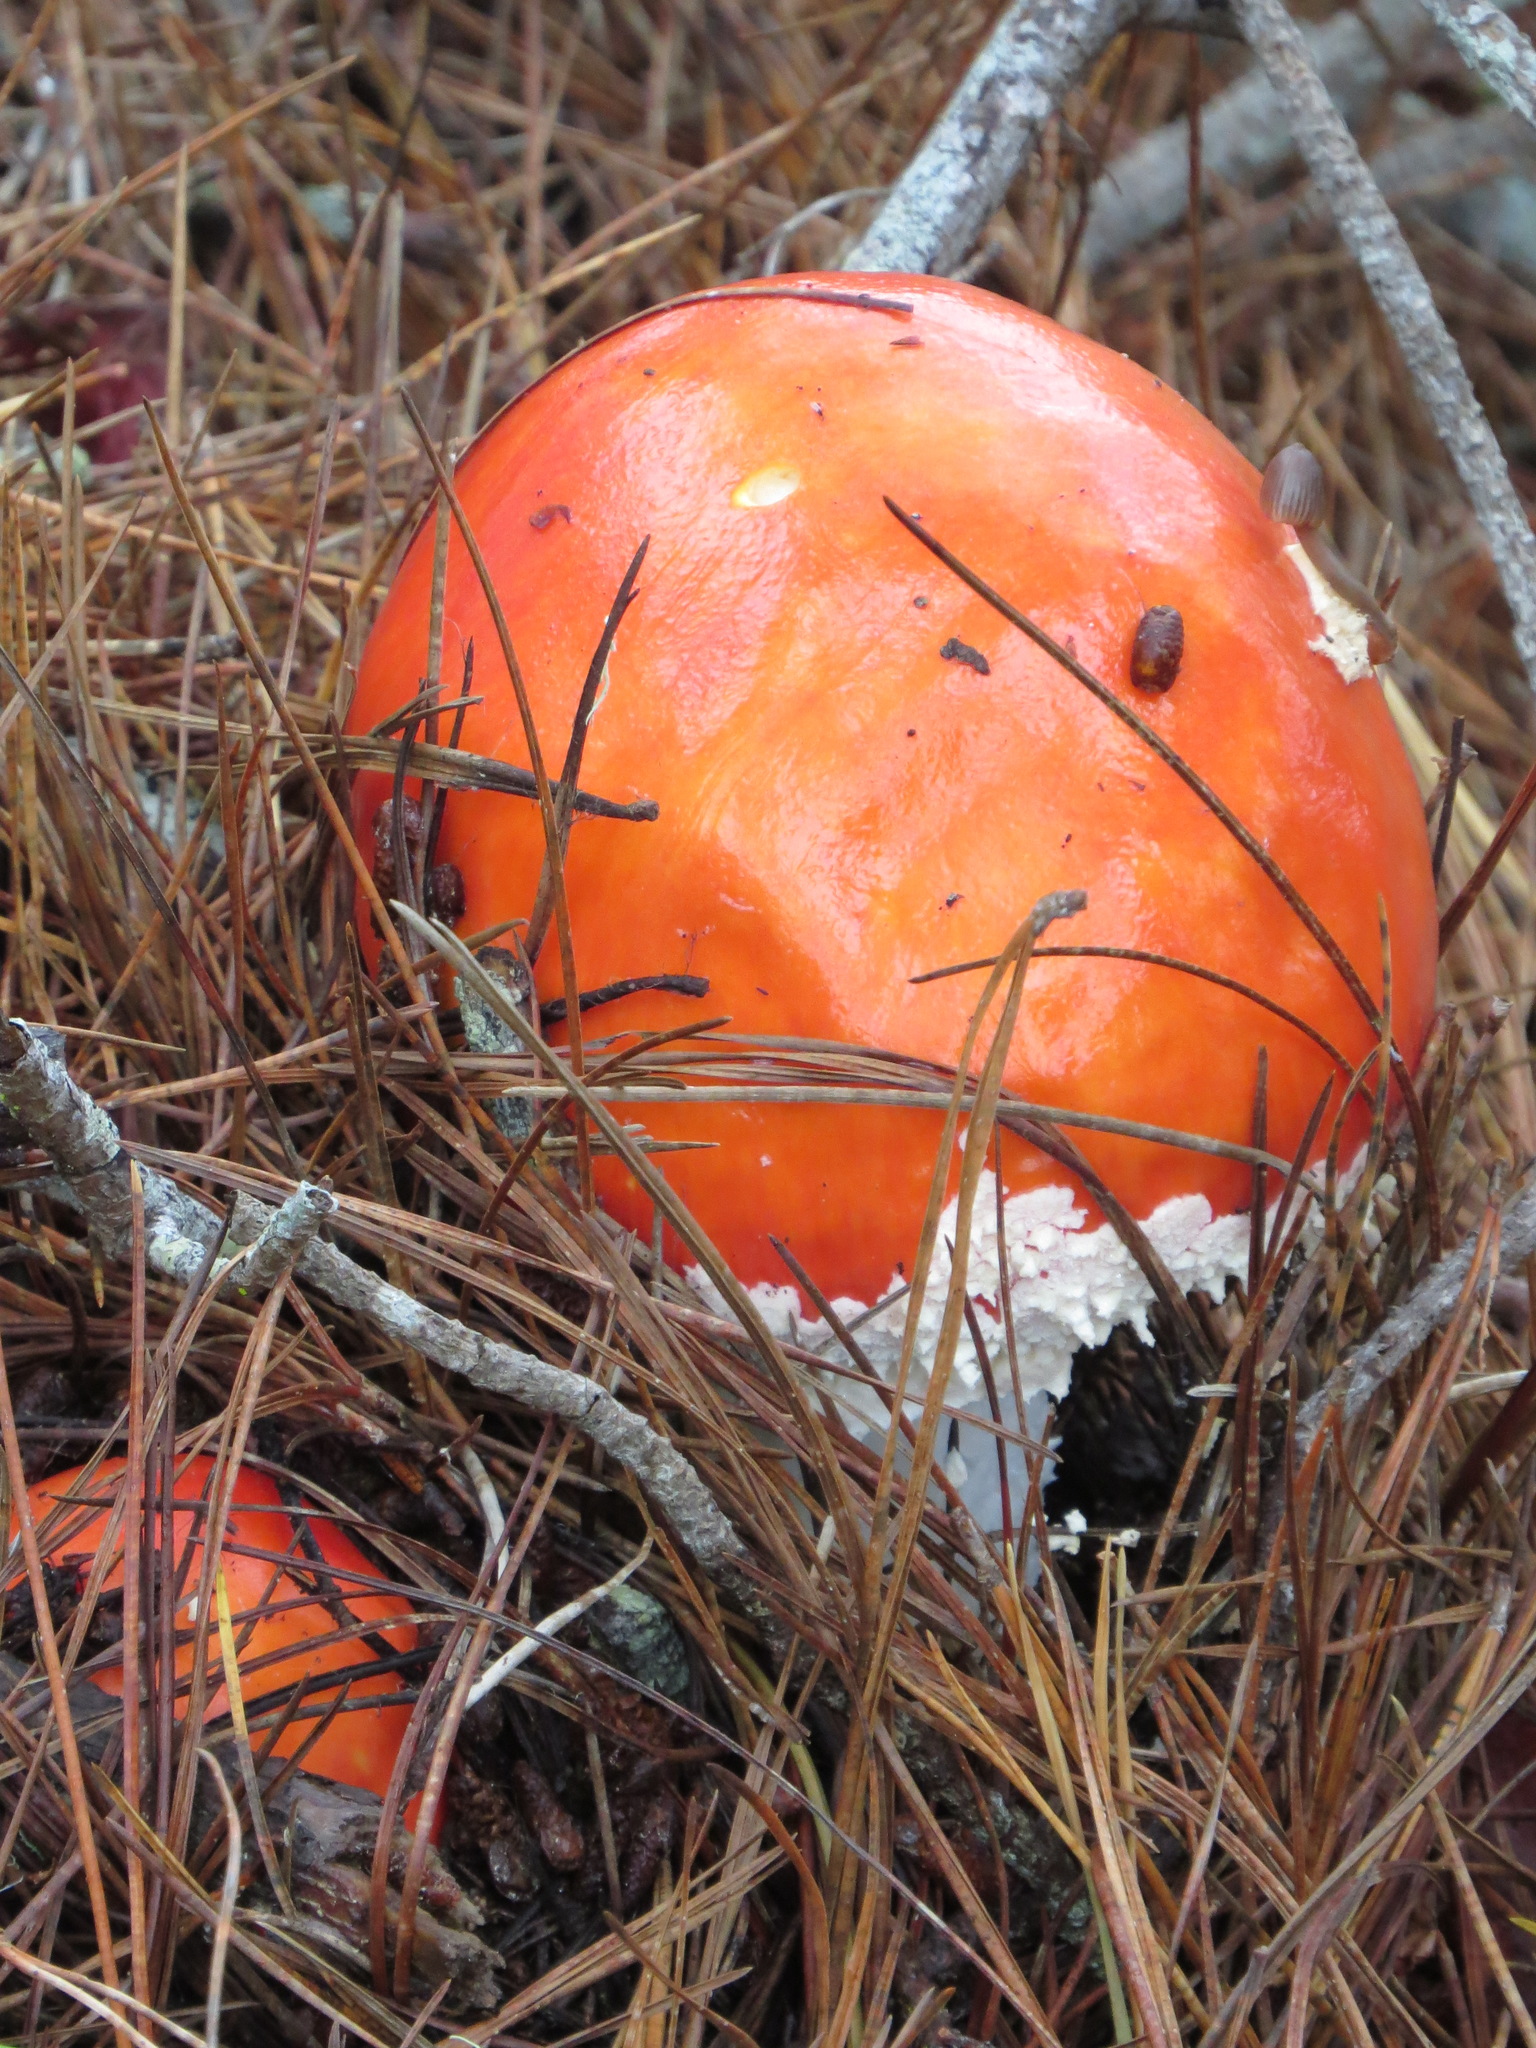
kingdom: Fungi
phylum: Basidiomycota
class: Agaricomycetes
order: Agaricales
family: Amanitaceae
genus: Amanita
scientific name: Amanita muscaria
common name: Fly agaric
